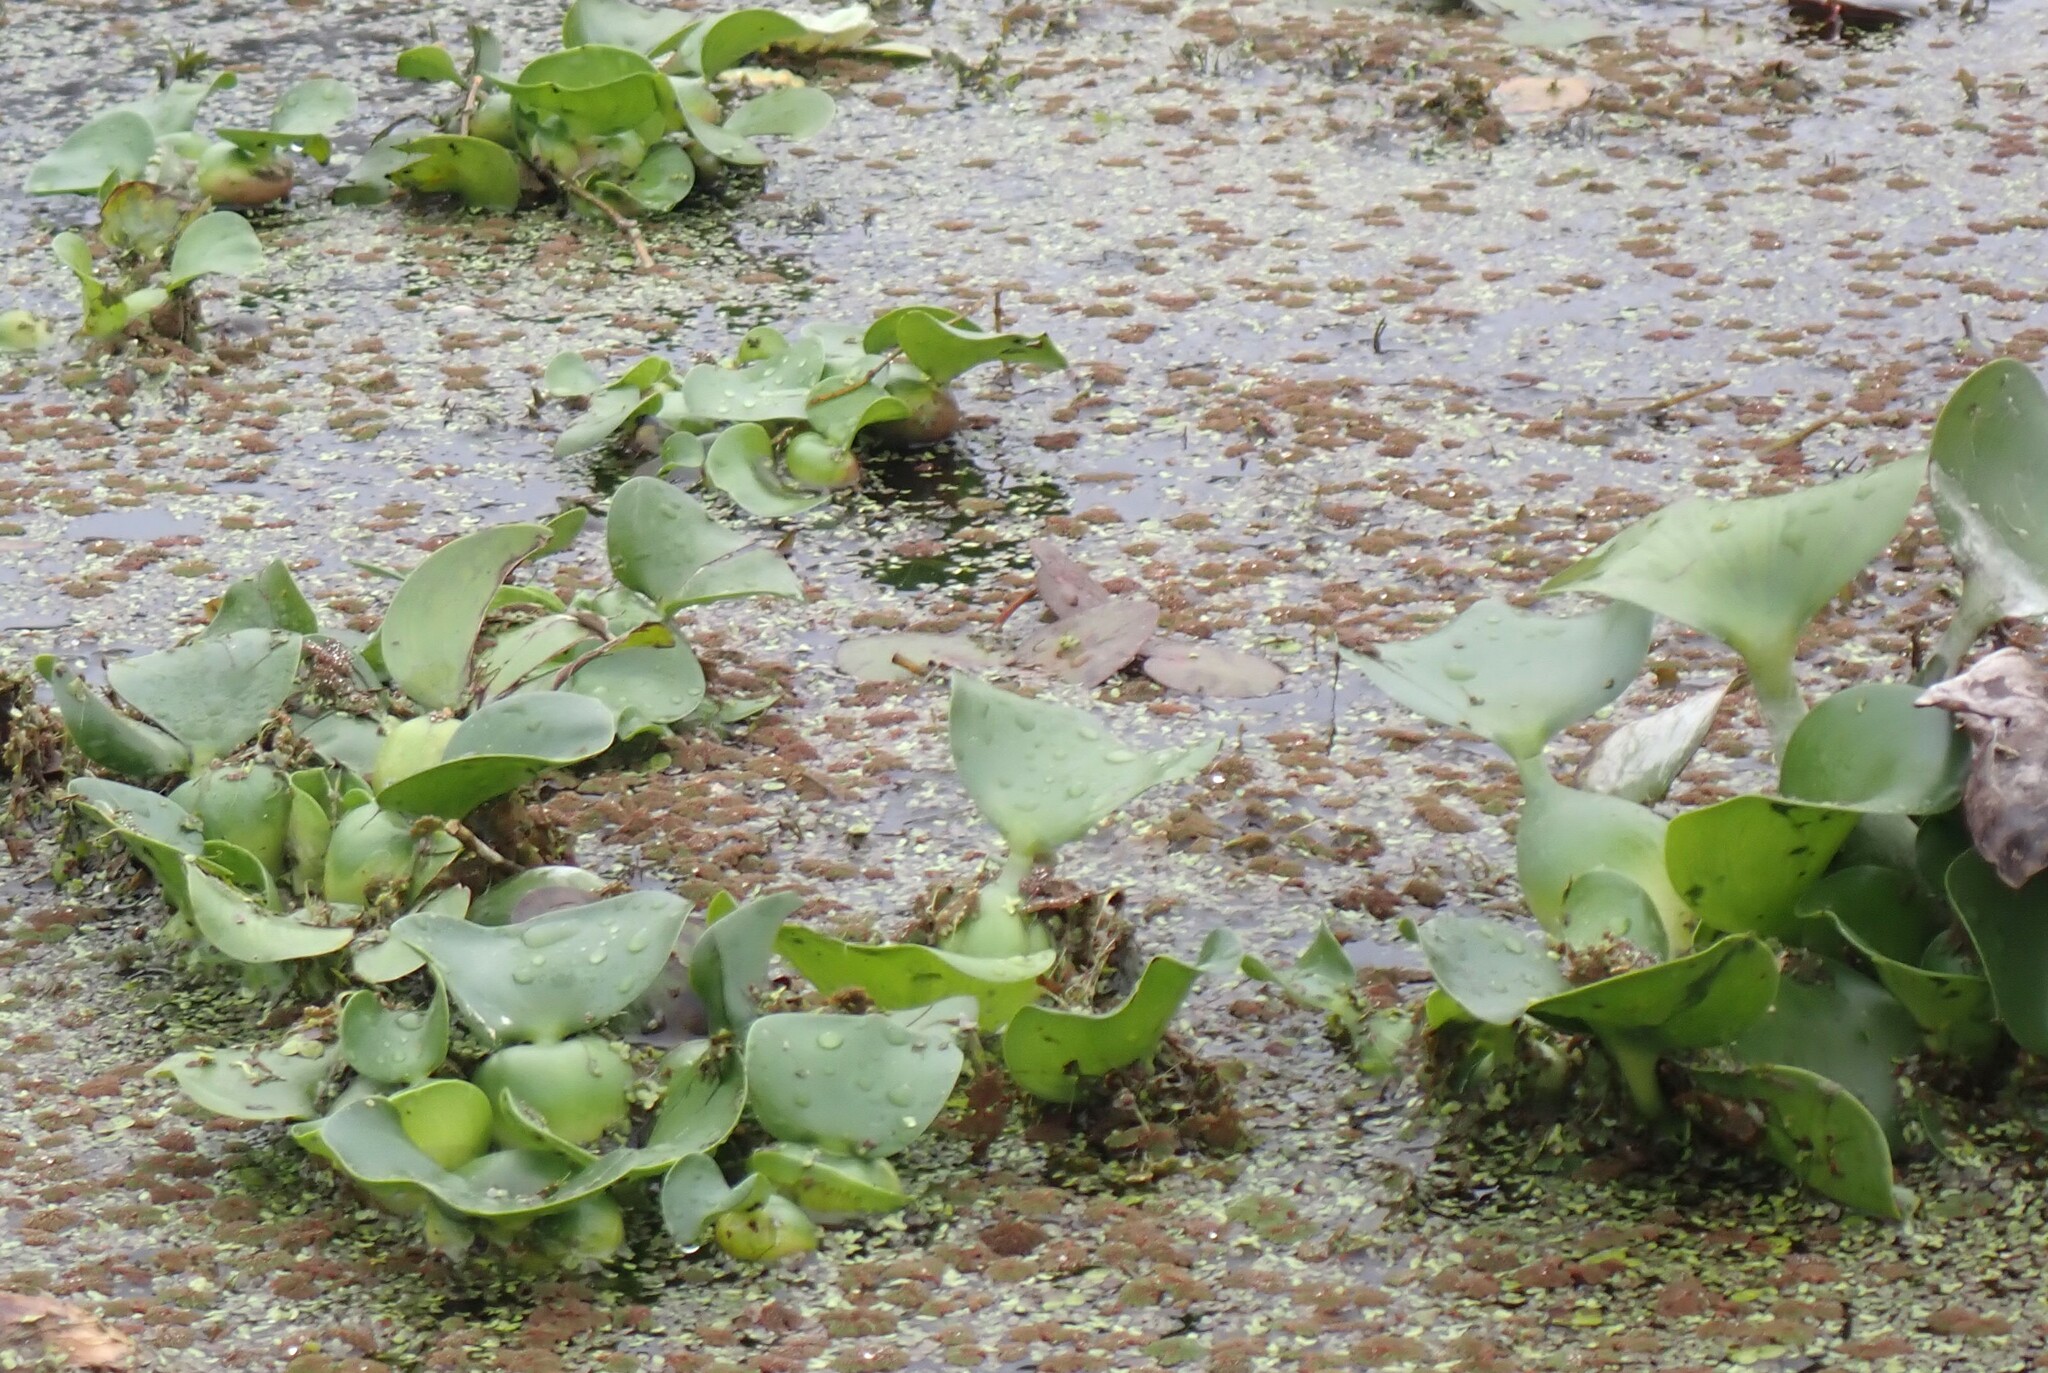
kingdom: Plantae
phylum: Tracheophyta
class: Liliopsida
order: Commelinales
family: Pontederiaceae
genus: Pontederia
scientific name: Pontederia crassipes
